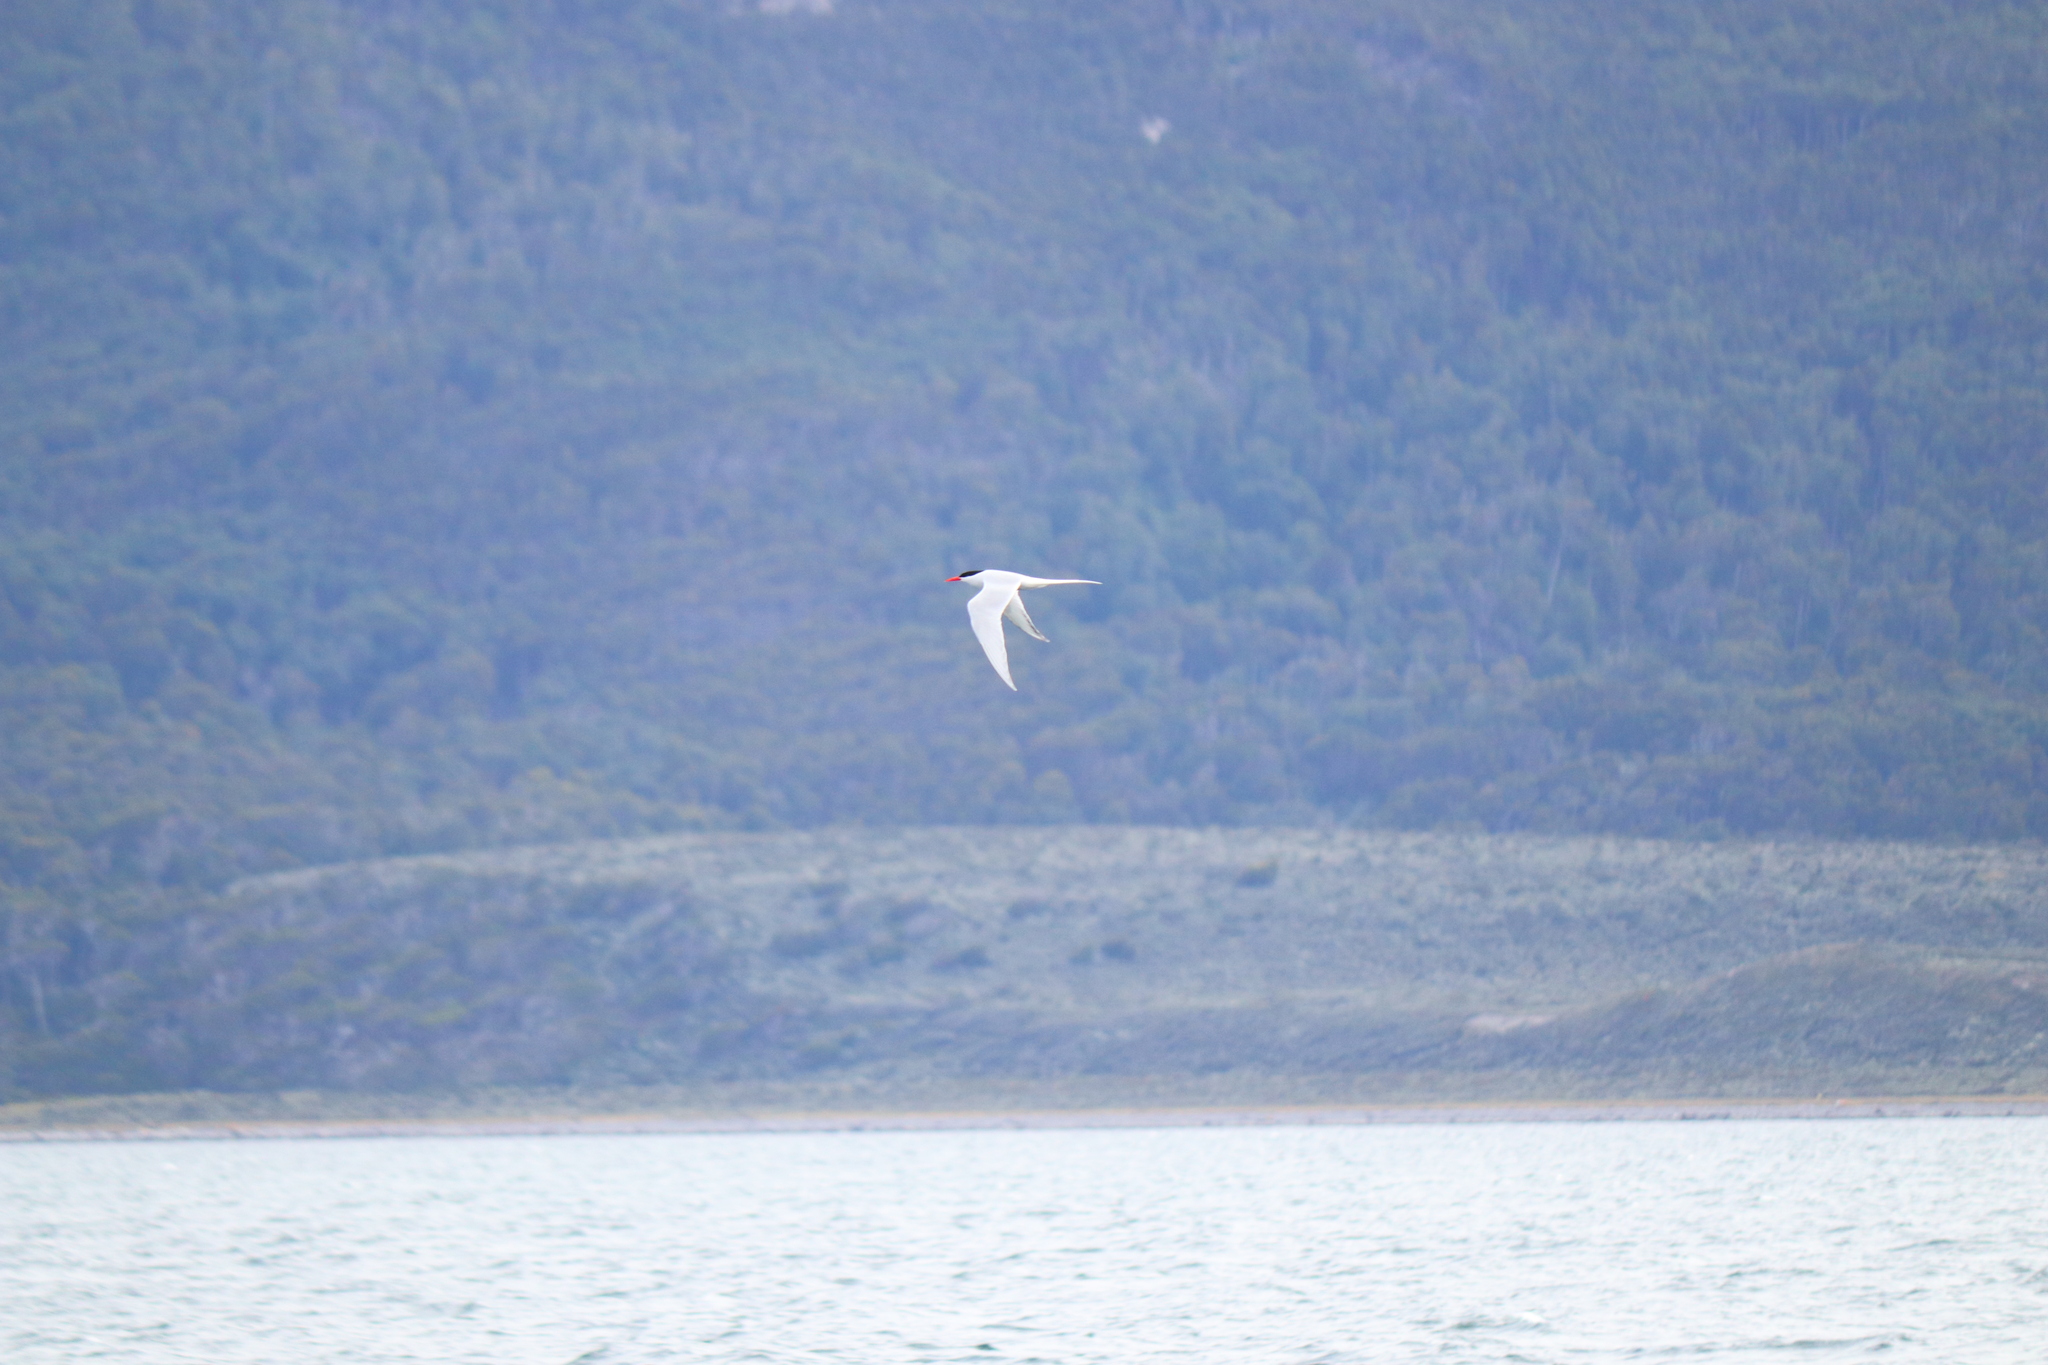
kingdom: Animalia
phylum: Chordata
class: Aves
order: Charadriiformes
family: Laridae
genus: Sterna
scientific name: Sterna hirundinacea
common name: South american tern
